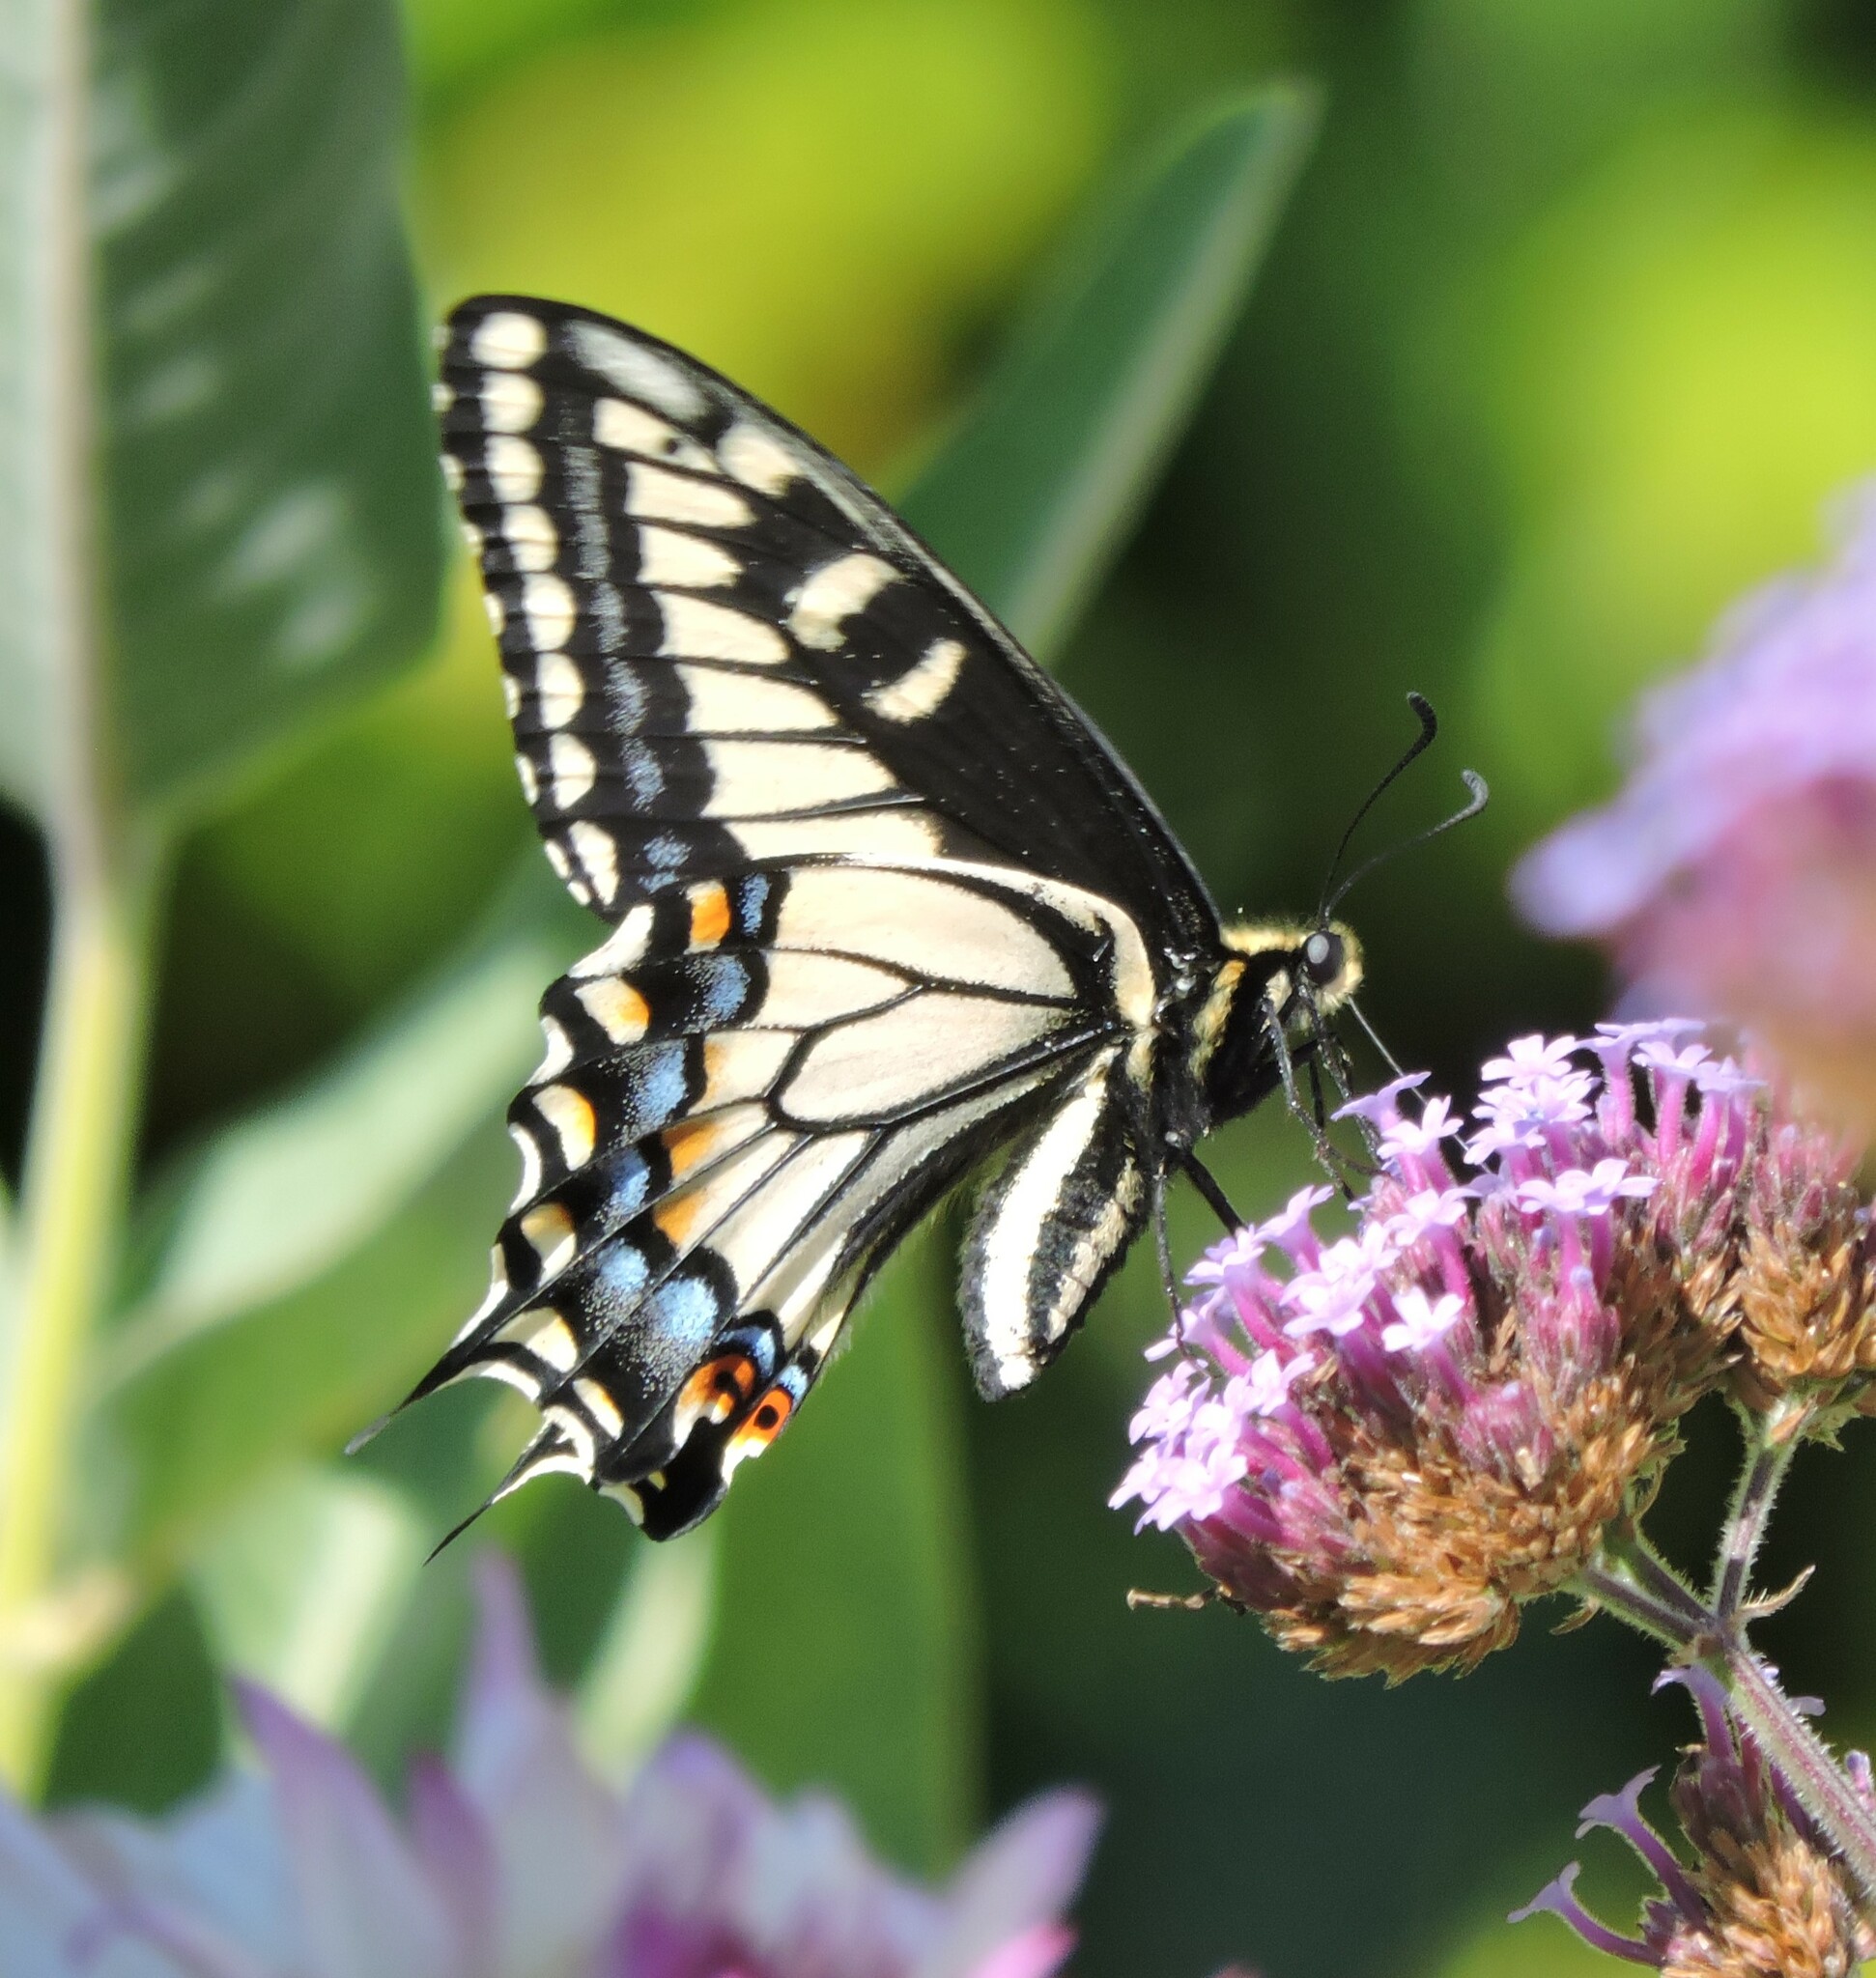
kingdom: Animalia
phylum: Arthropoda
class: Insecta
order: Lepidoptera
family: Papilionidae
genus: Papilio
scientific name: Papilio zelicaon
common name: Anise swallowtail
